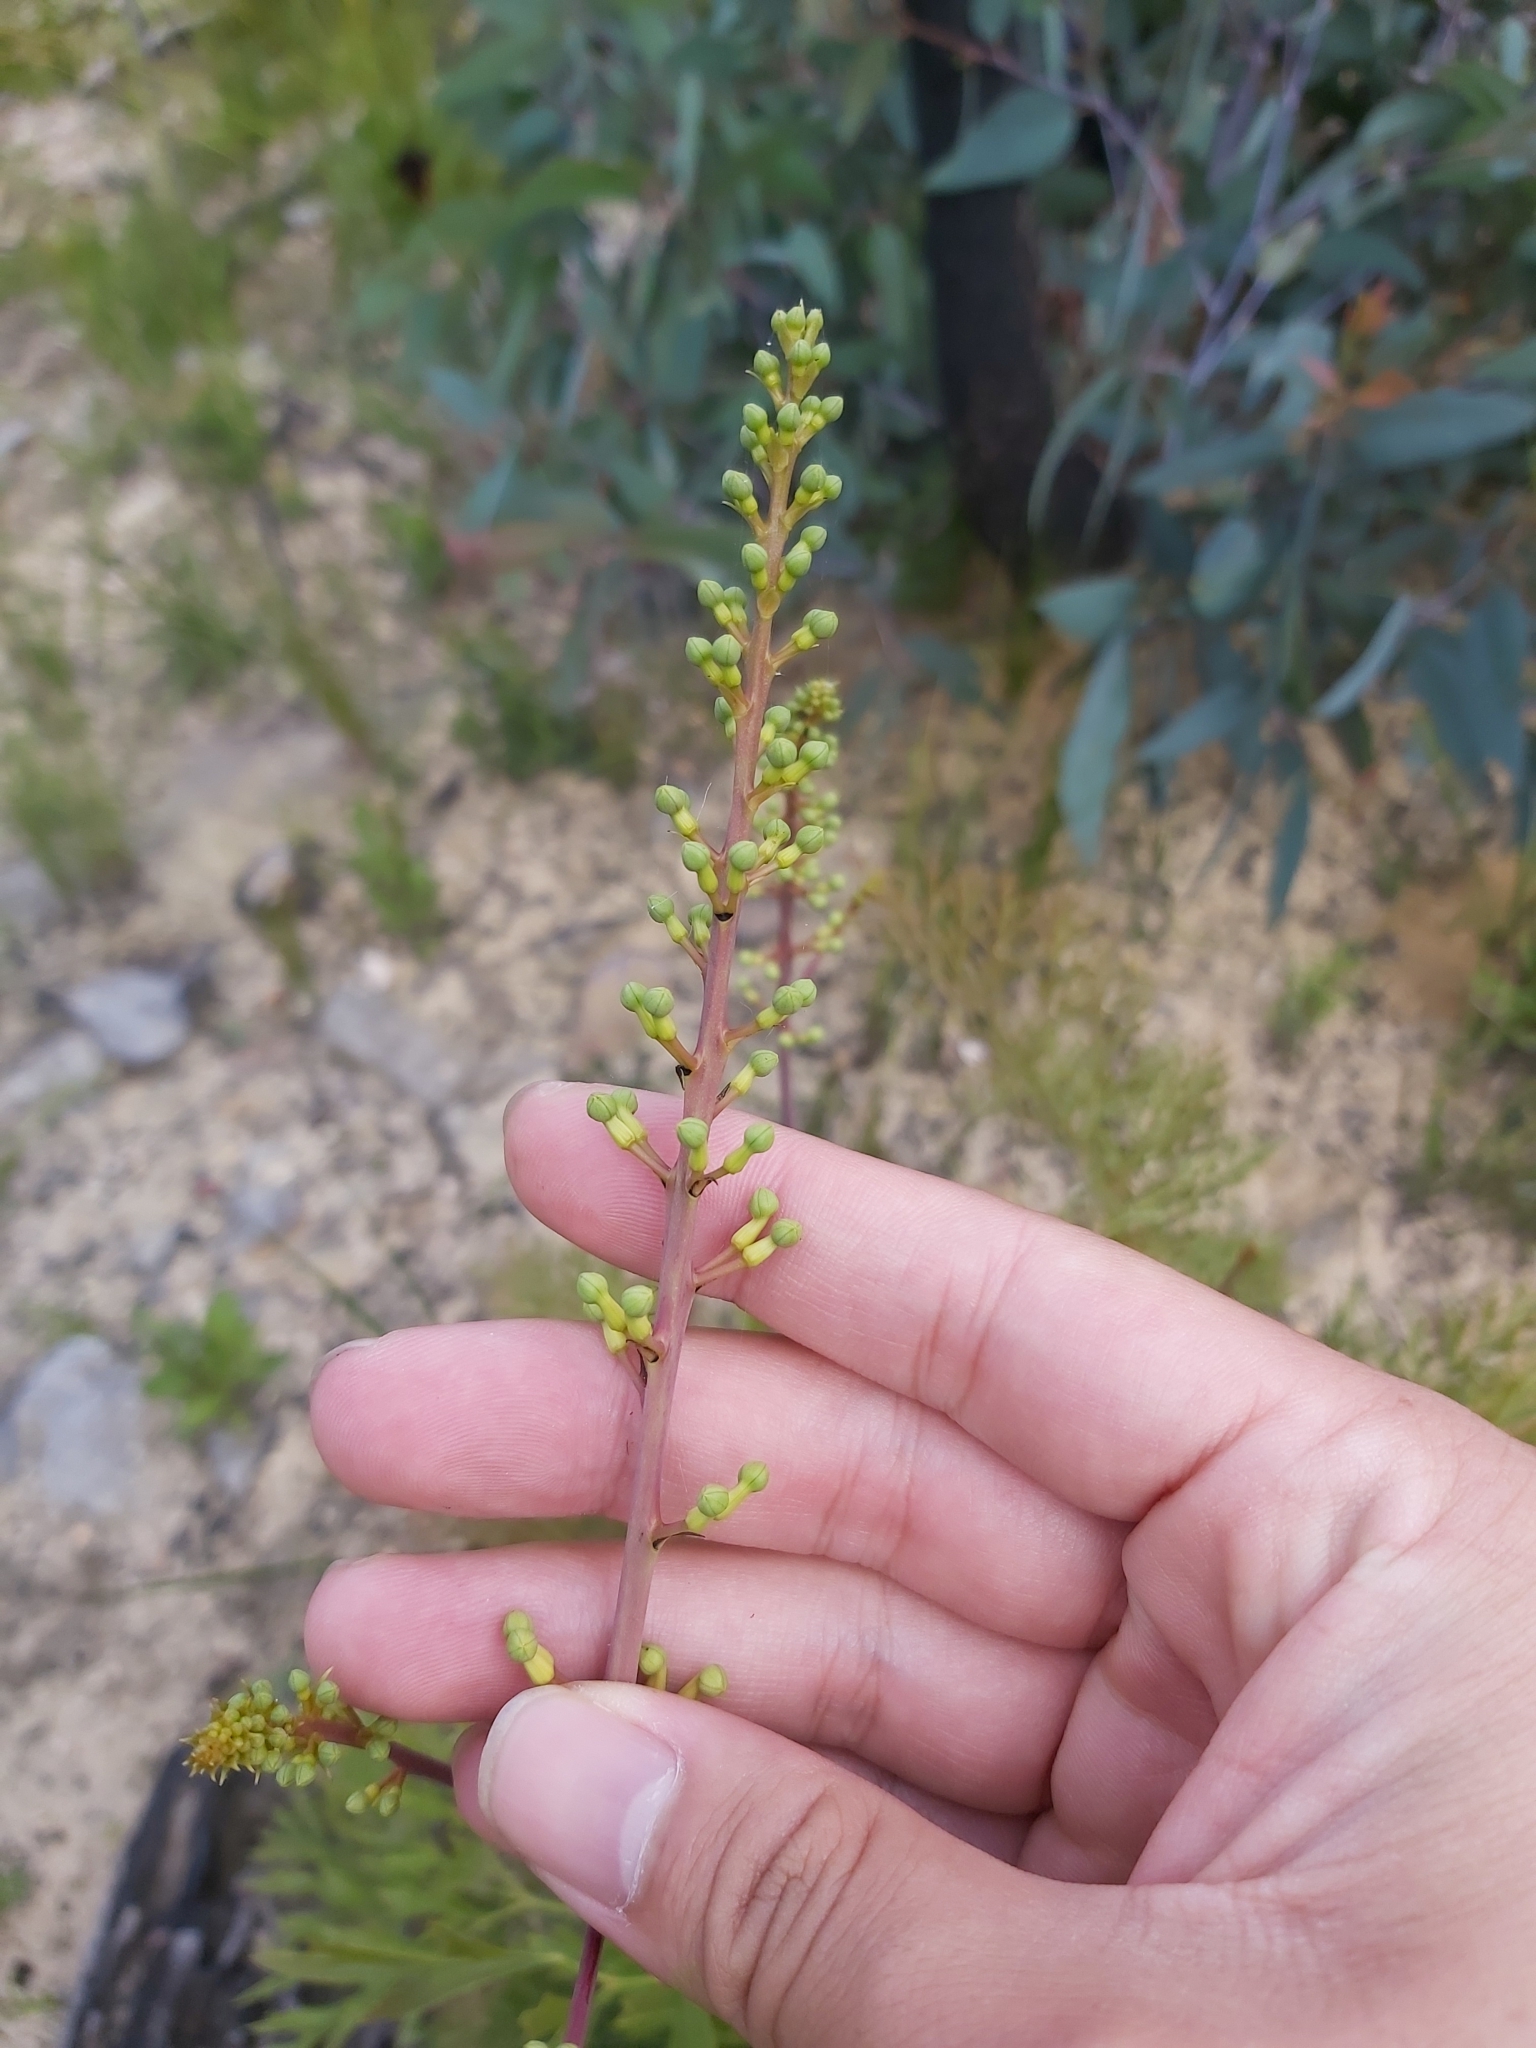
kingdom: Plantae
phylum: Tracheophyta
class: Magnoliopsida
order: Proteales
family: Proteaceae
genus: Lomatia
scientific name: Lomatia silaifolia
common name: Crinklebush
